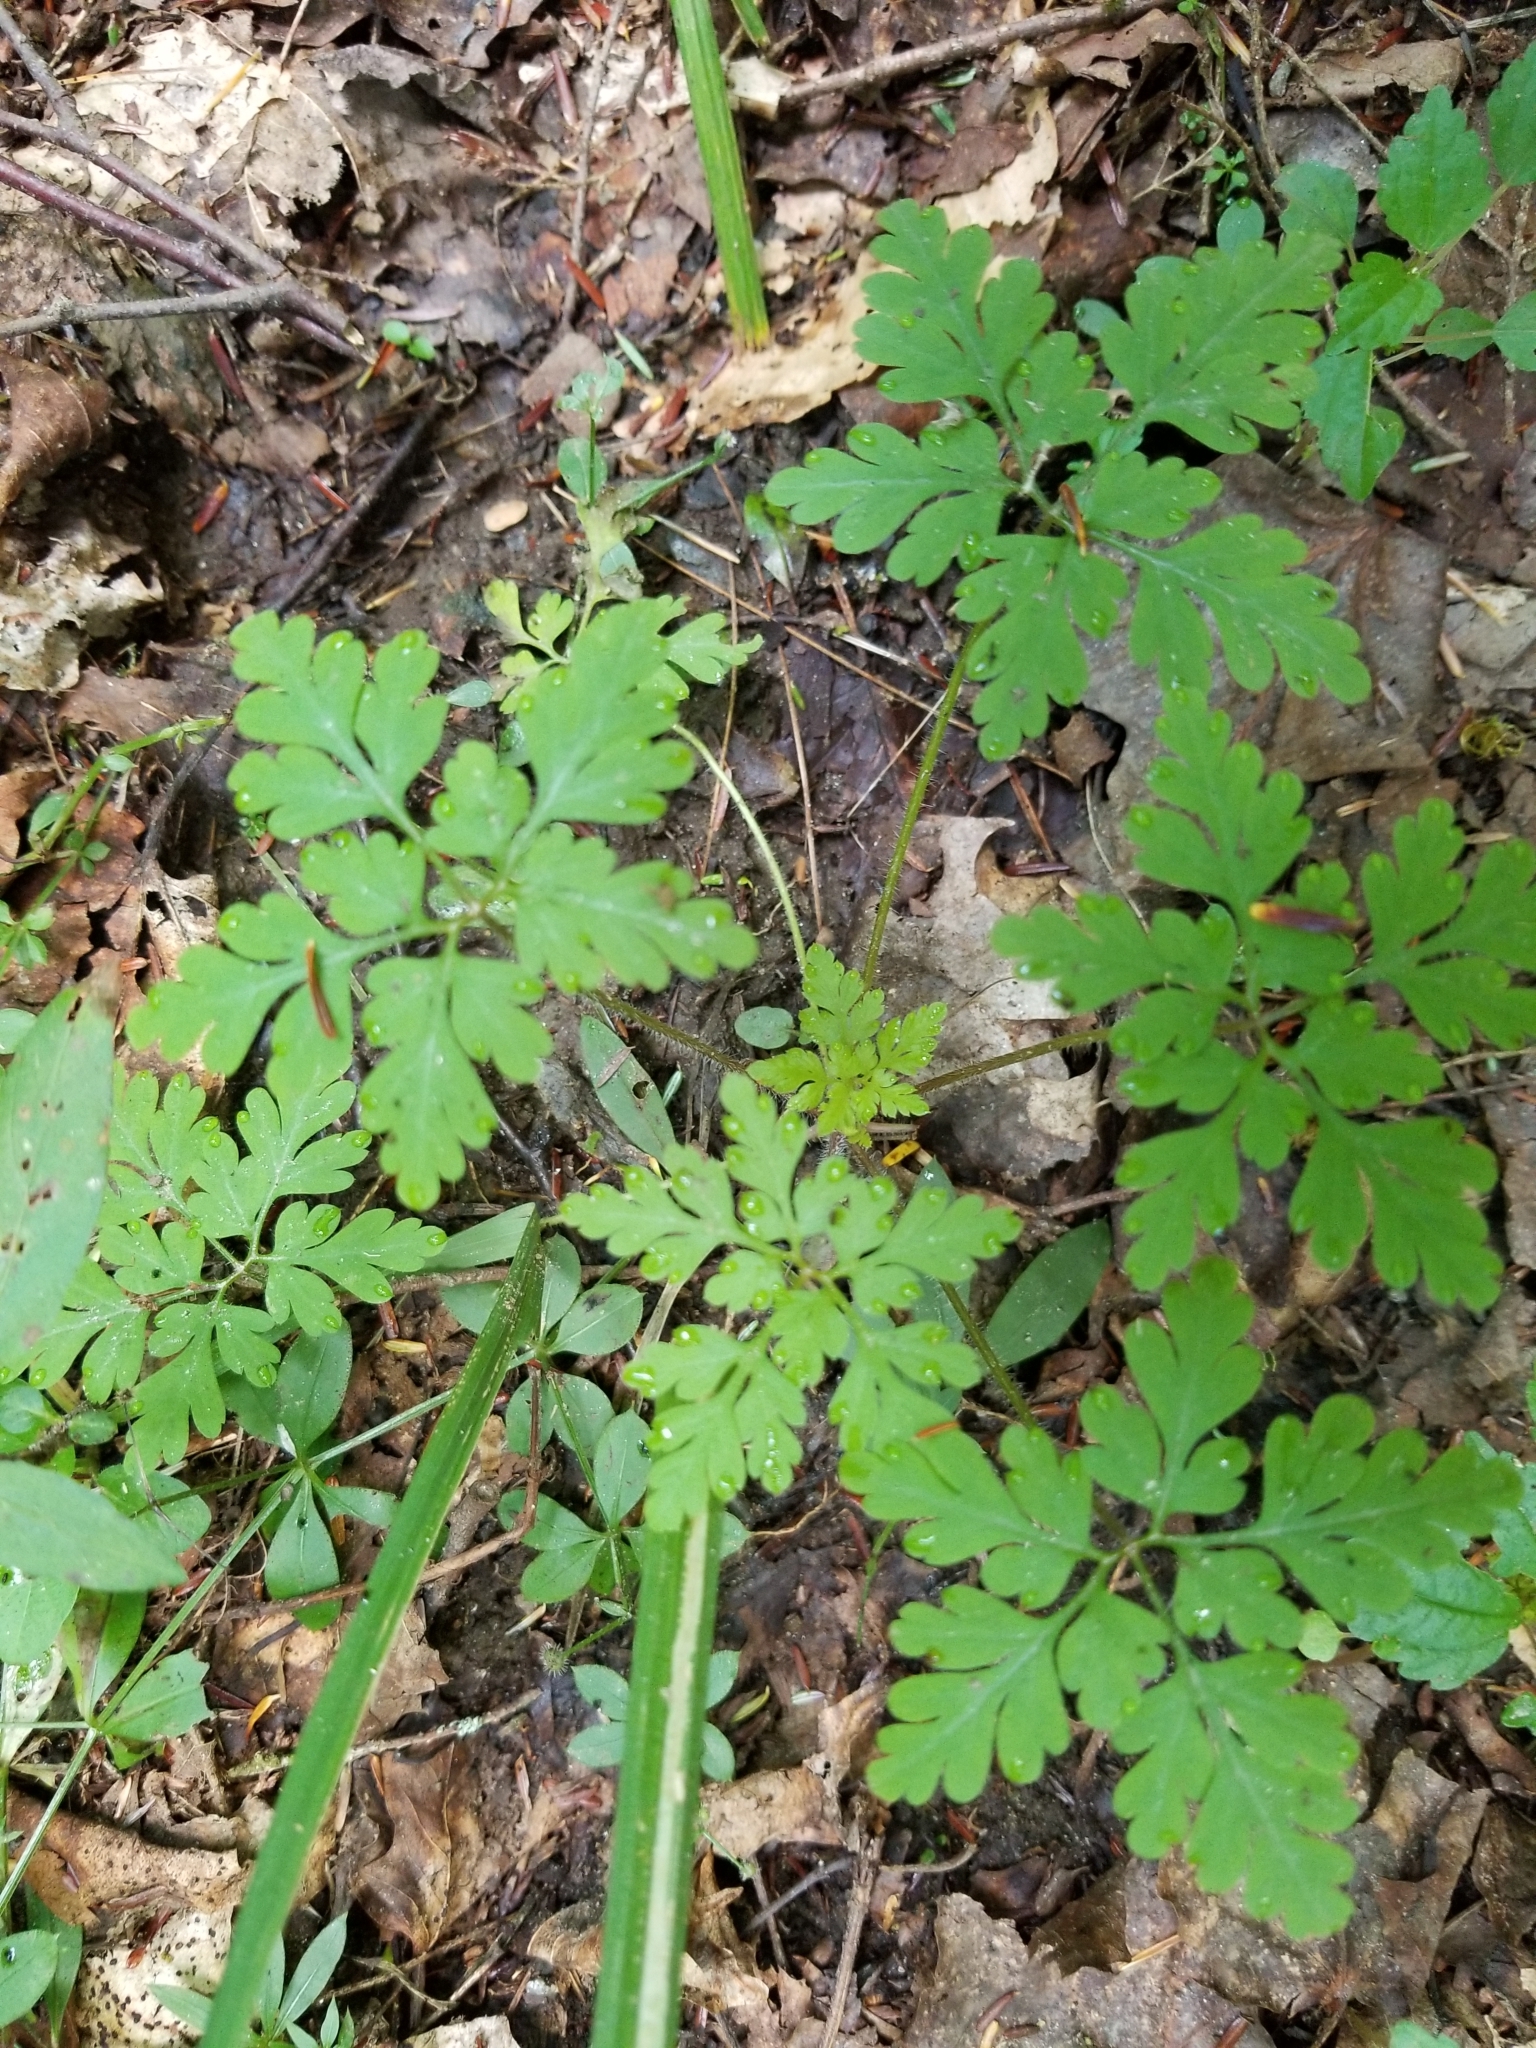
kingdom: Plantae
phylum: Tracheophyta
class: Magnoliopsida
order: Geraniales
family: Geraniaceae
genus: Geranium
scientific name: Geranium robertianum
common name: Herb-robert
